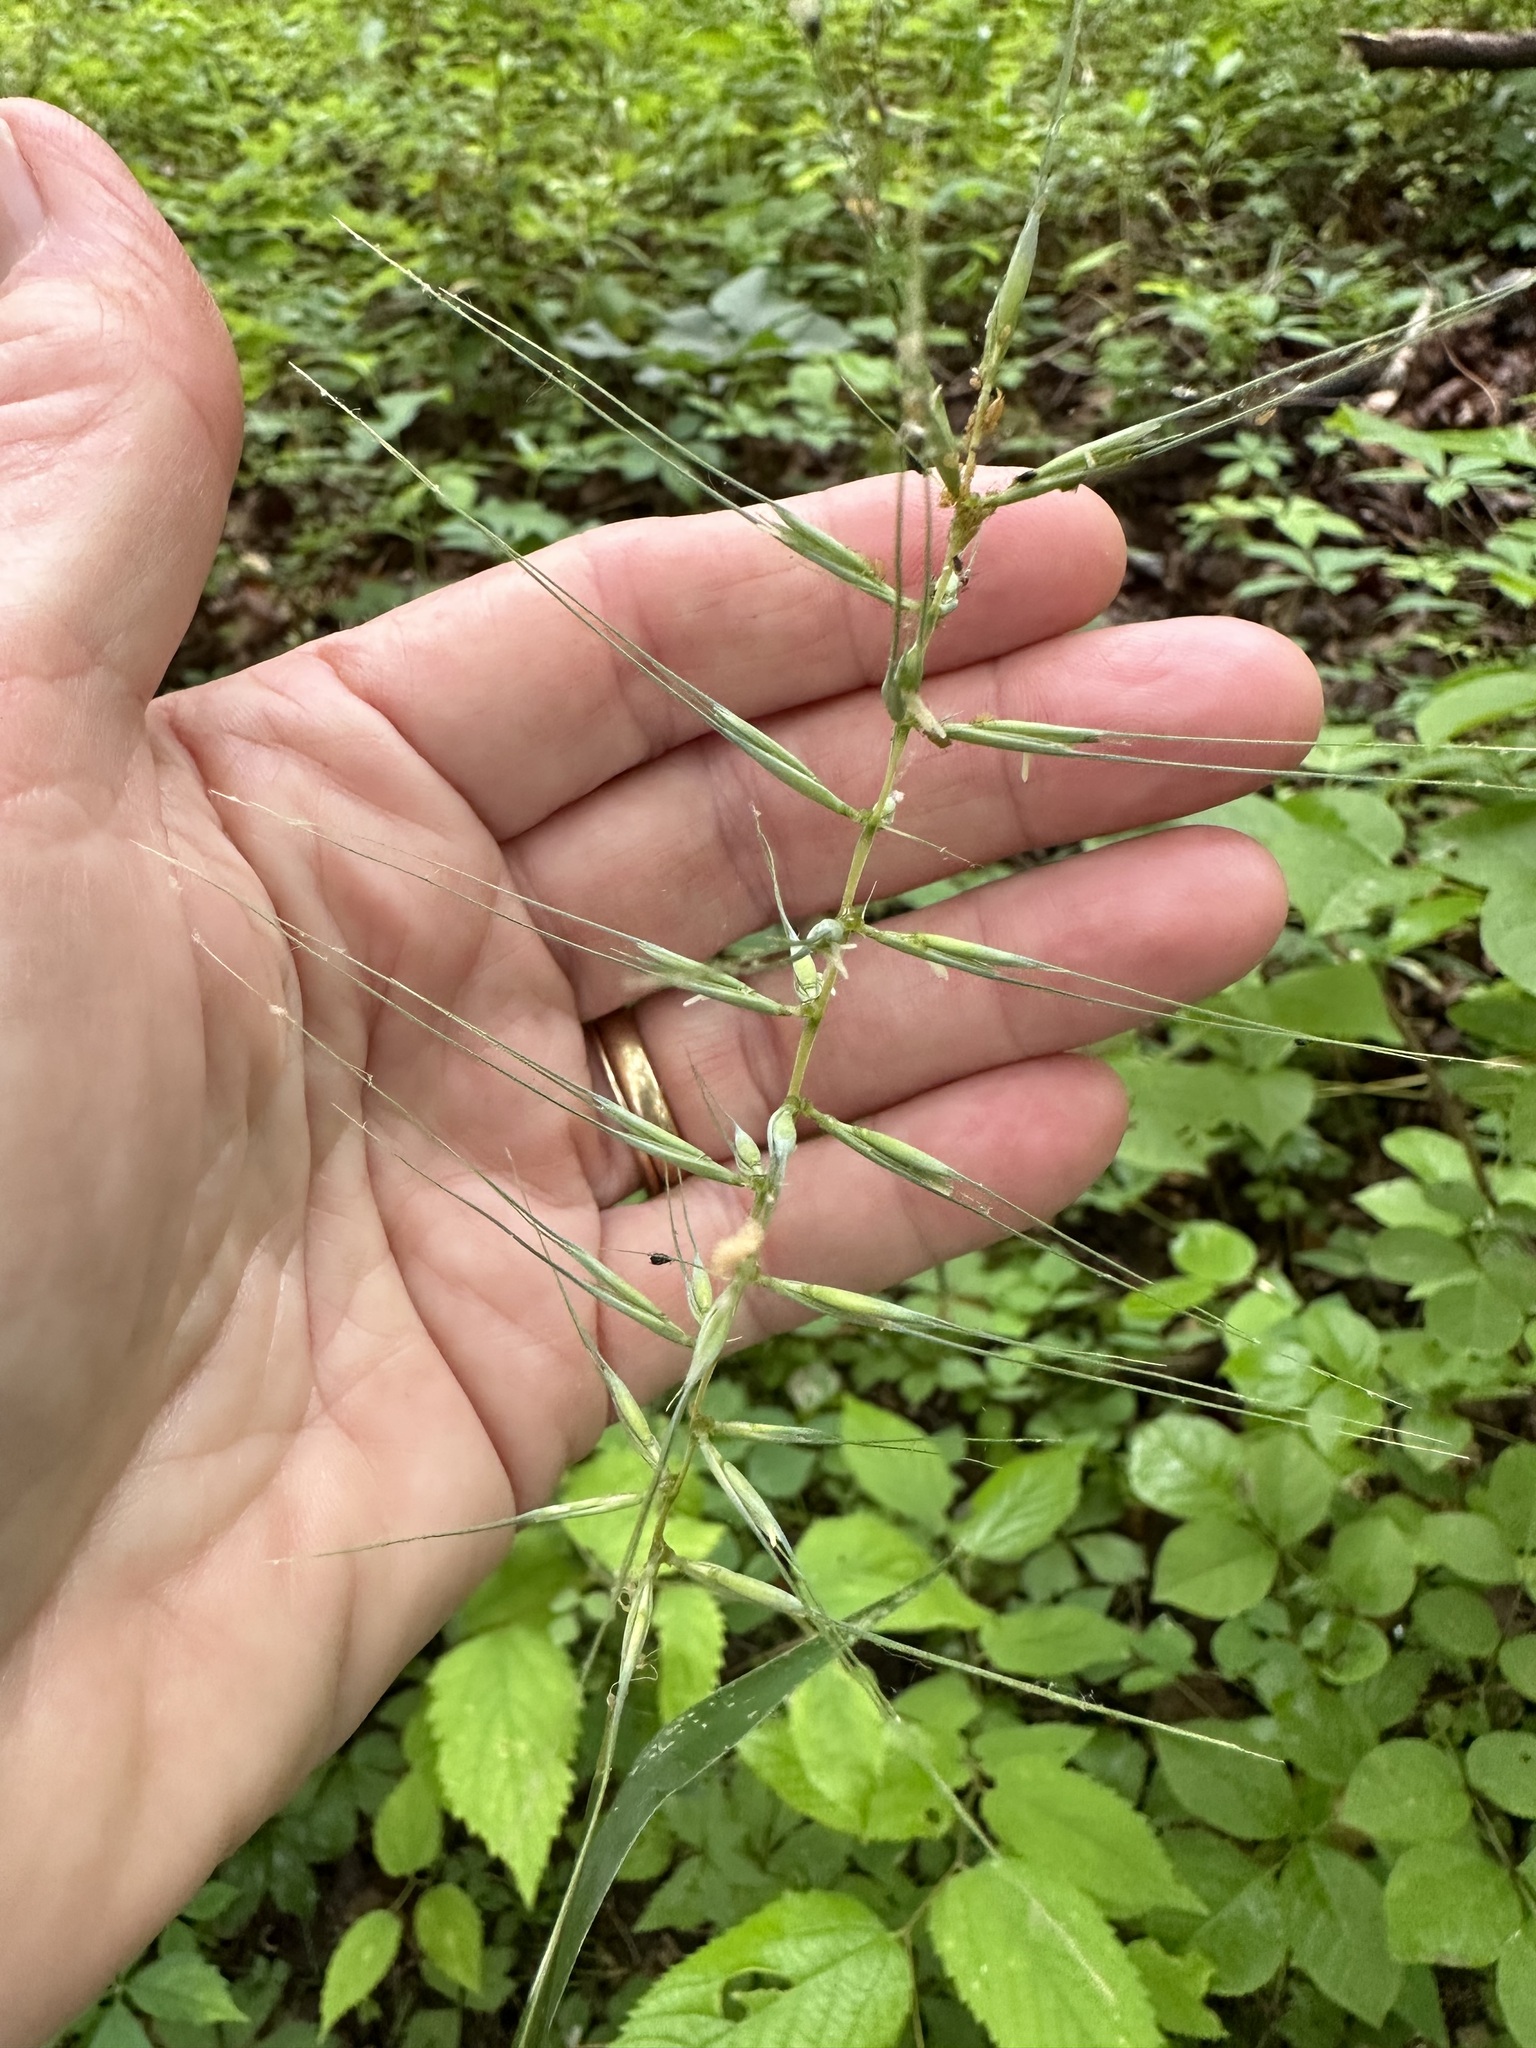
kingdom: Plantae
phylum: Tracheophyta
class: Liliopsida
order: Poales
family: Poaceae
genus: Elymus
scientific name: Elymus hystrix
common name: Bottlebrush grass
